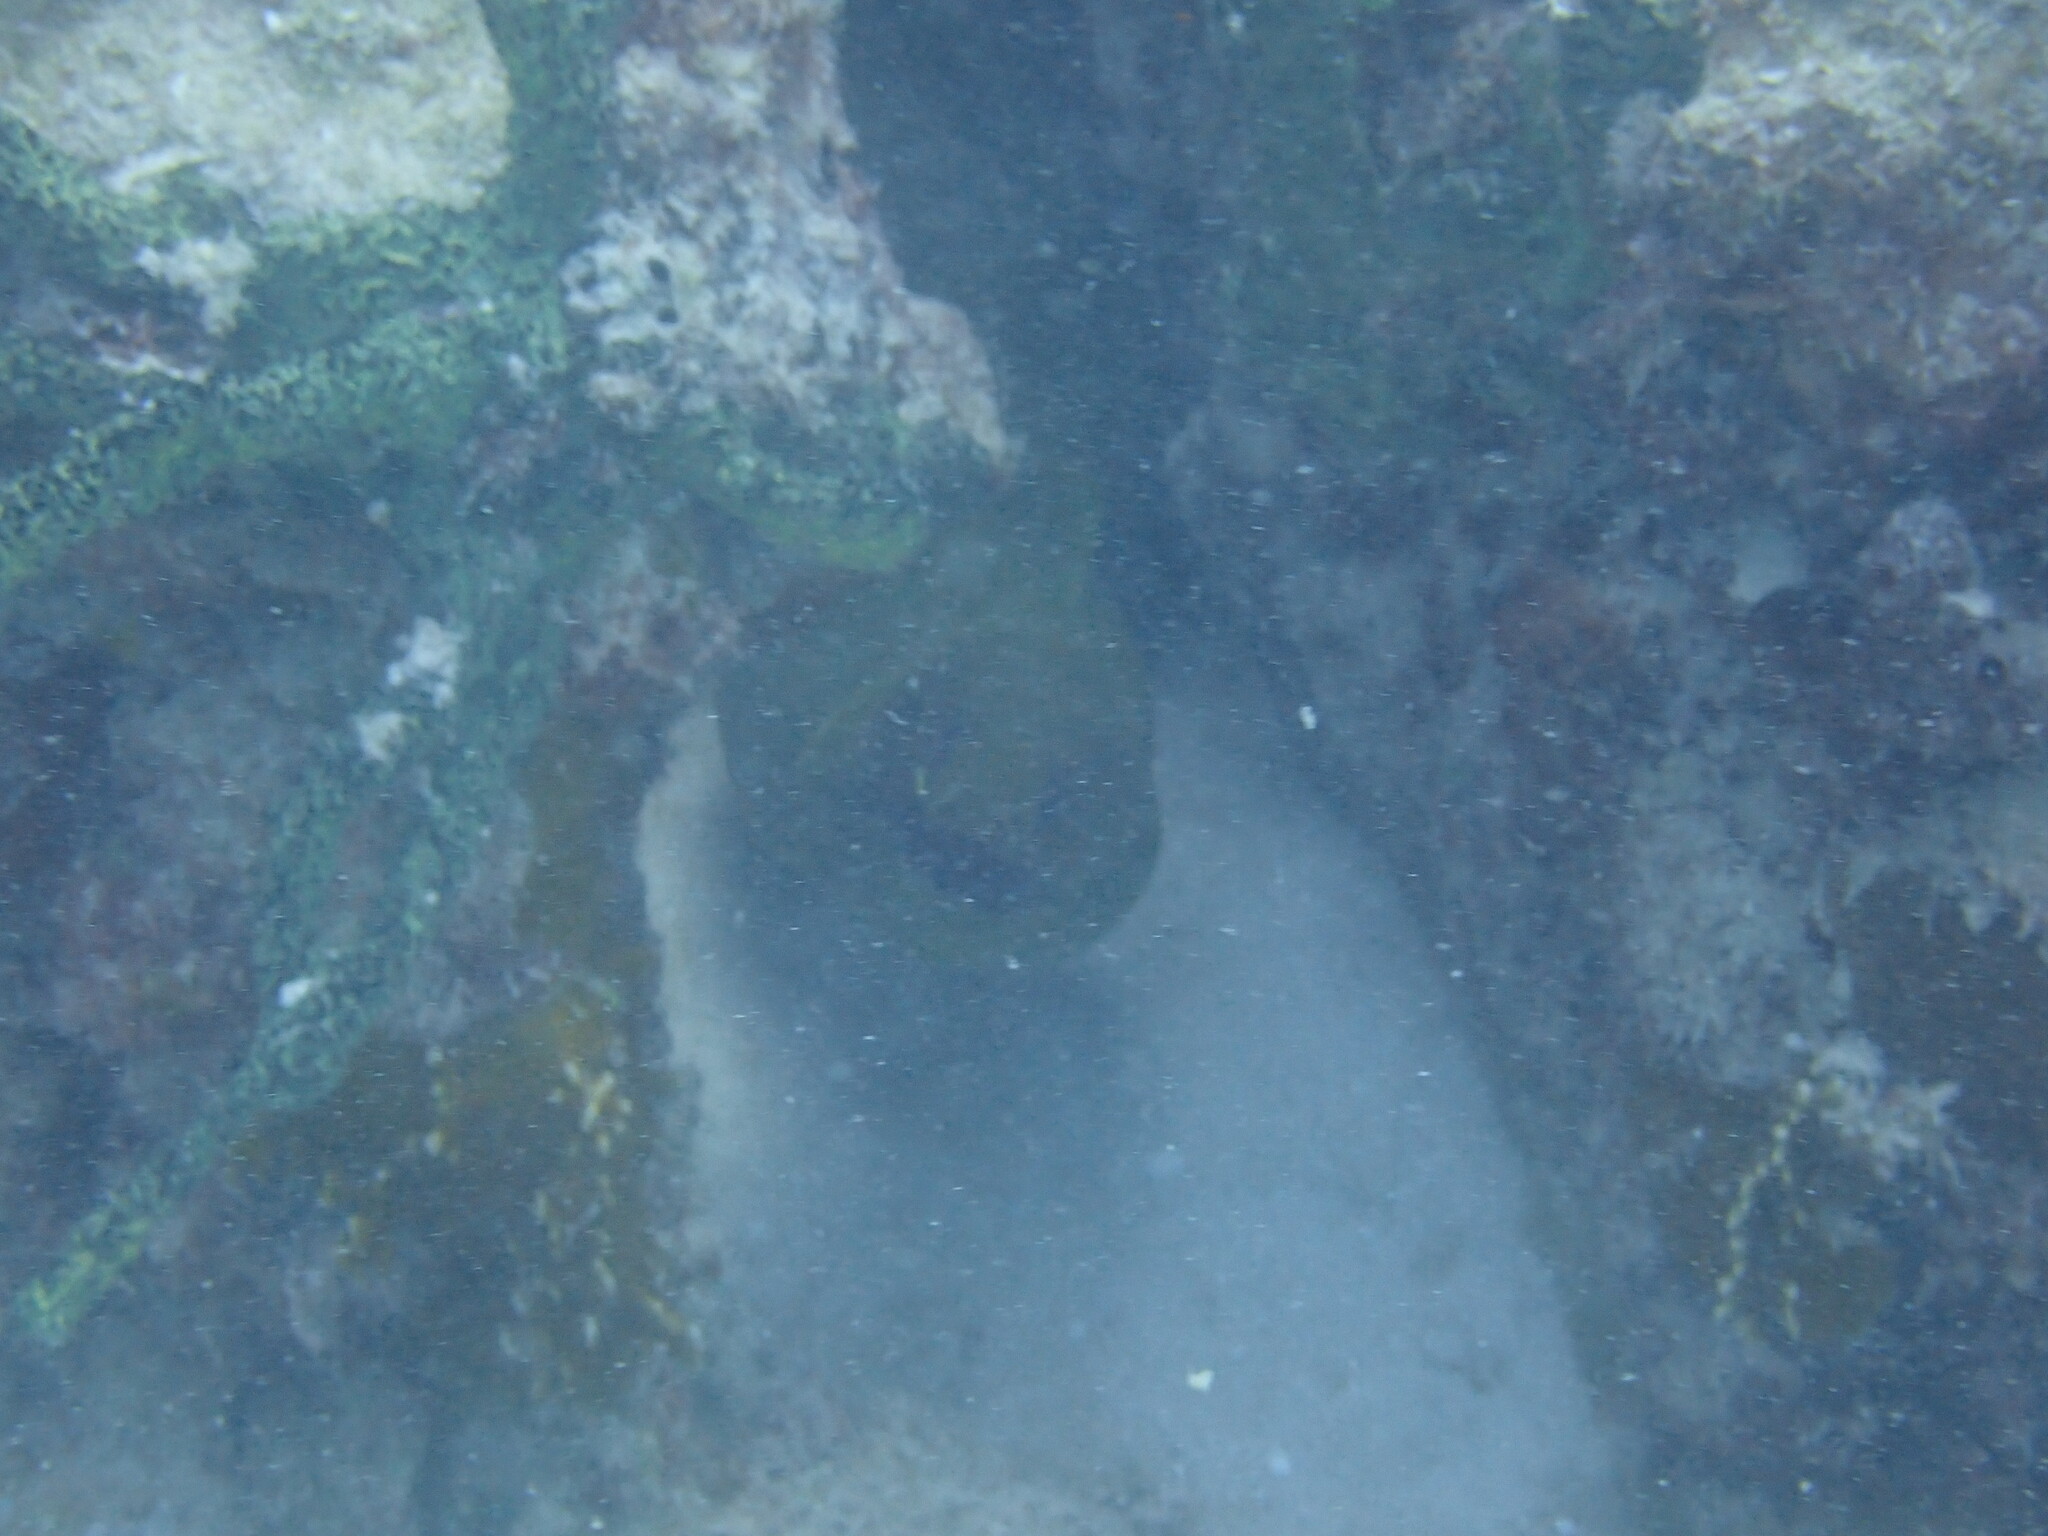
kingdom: Animalia
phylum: Chordata
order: Anguilliformes
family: Muraenidae
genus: Gymnothorax
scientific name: Gymnothorax funebris
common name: Green moray
